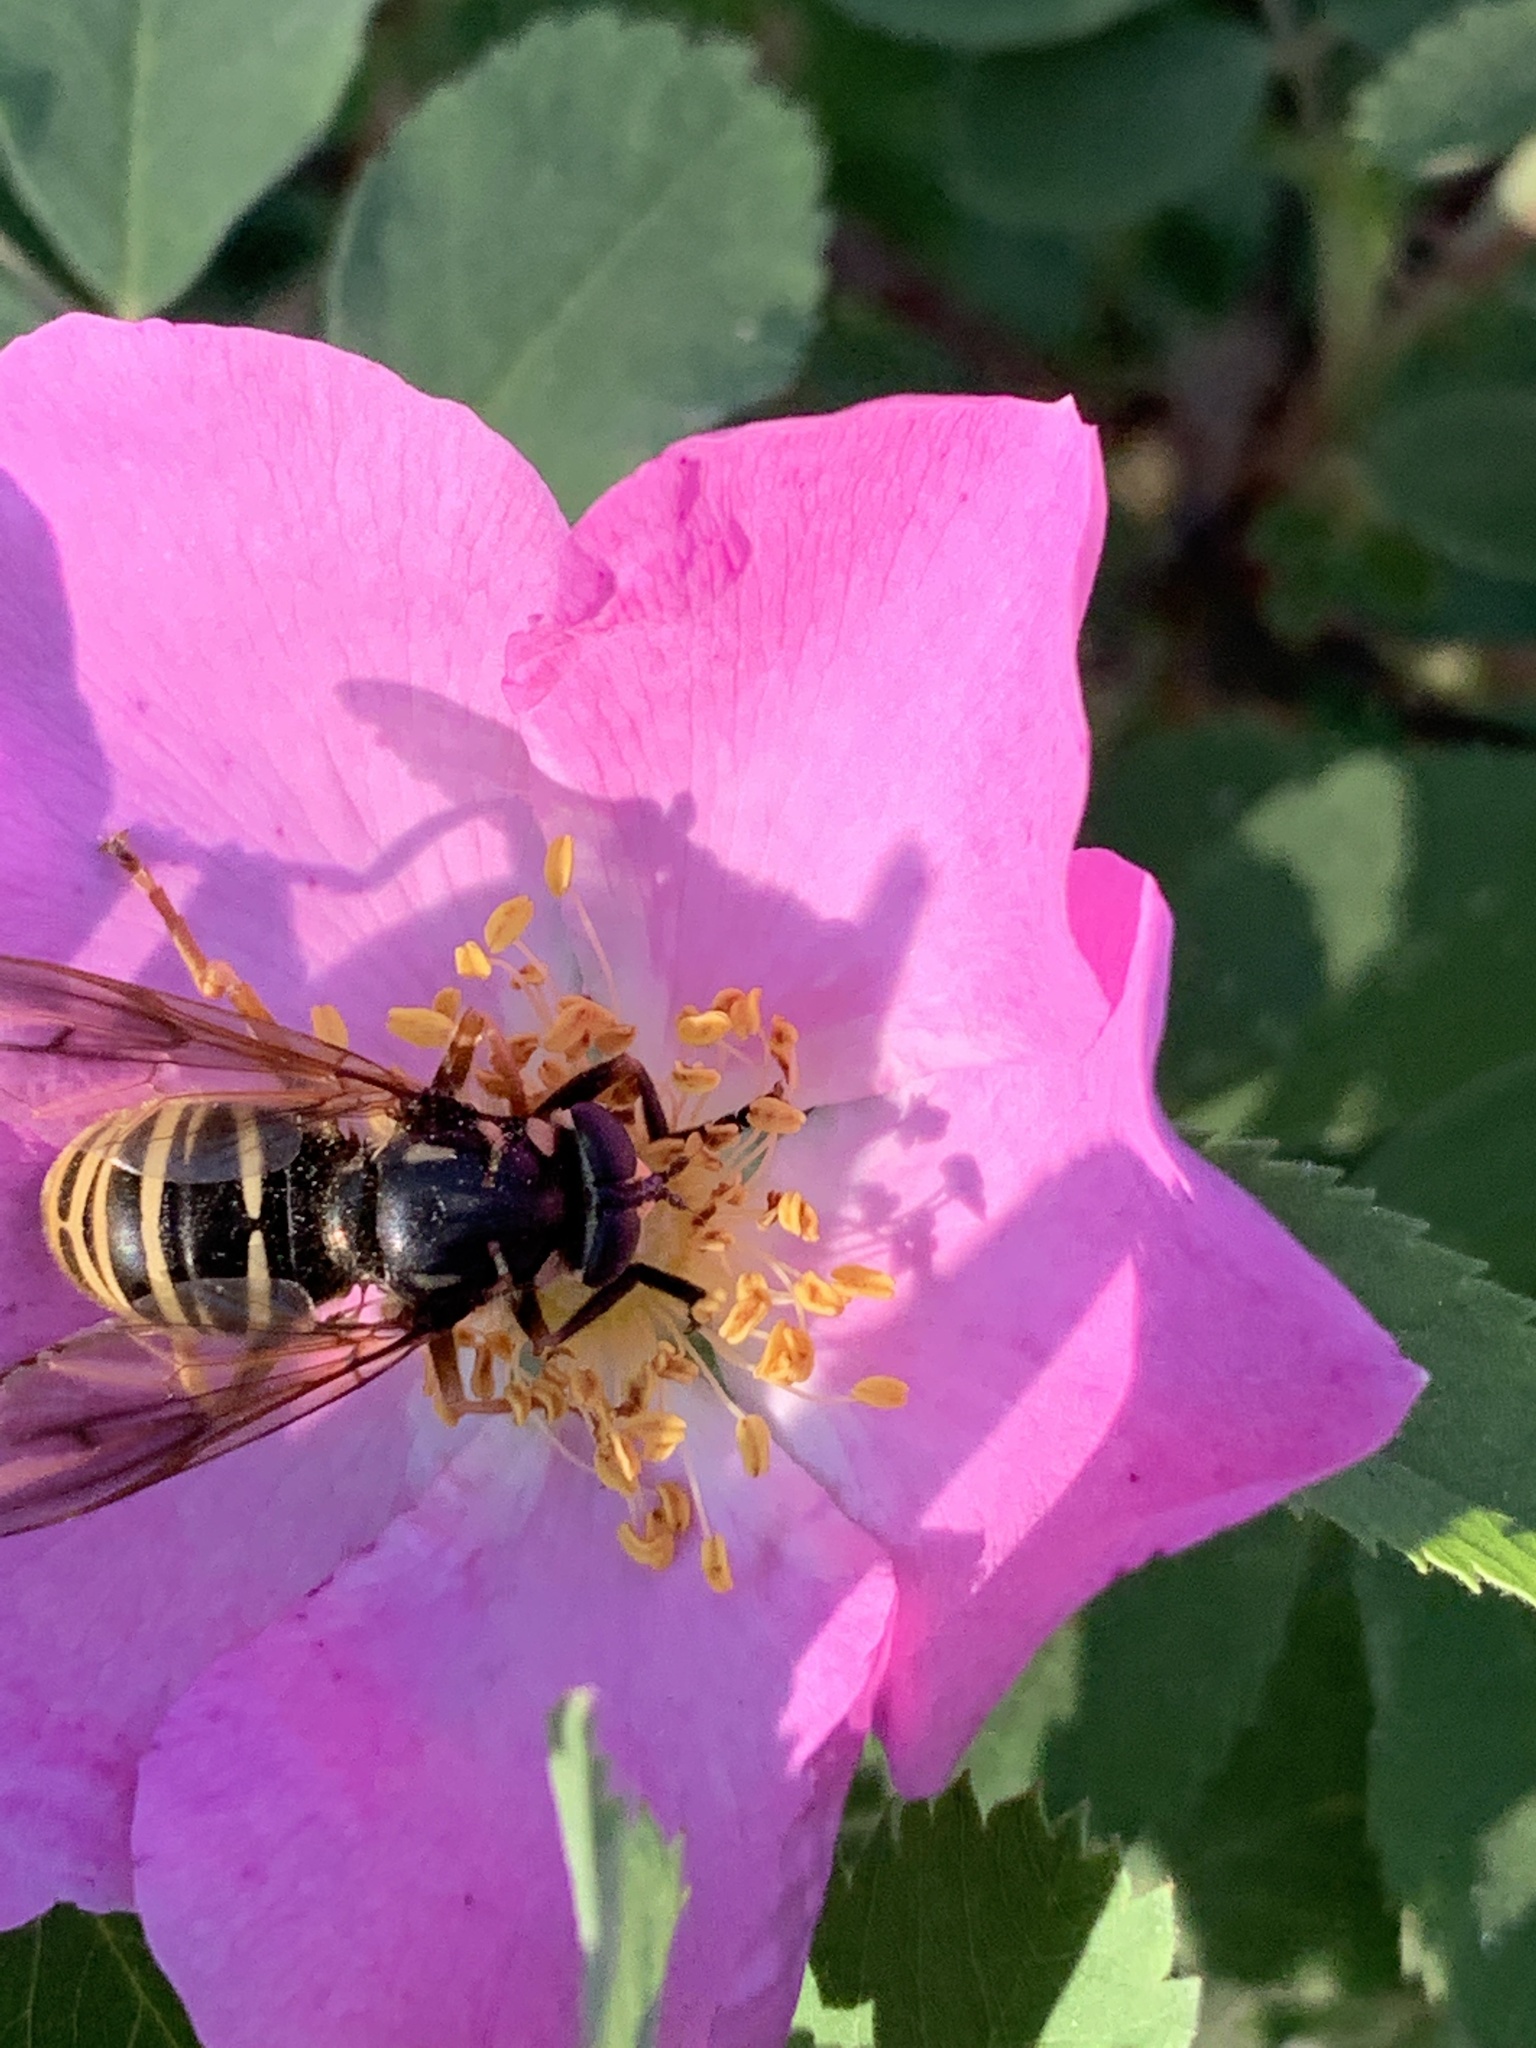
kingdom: Animalia
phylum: Arthropoda
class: Insecta
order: Diptera
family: Syrphidae
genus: Temnostoma
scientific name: Temnostoma excentricum
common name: Black-spotted falsehorn
